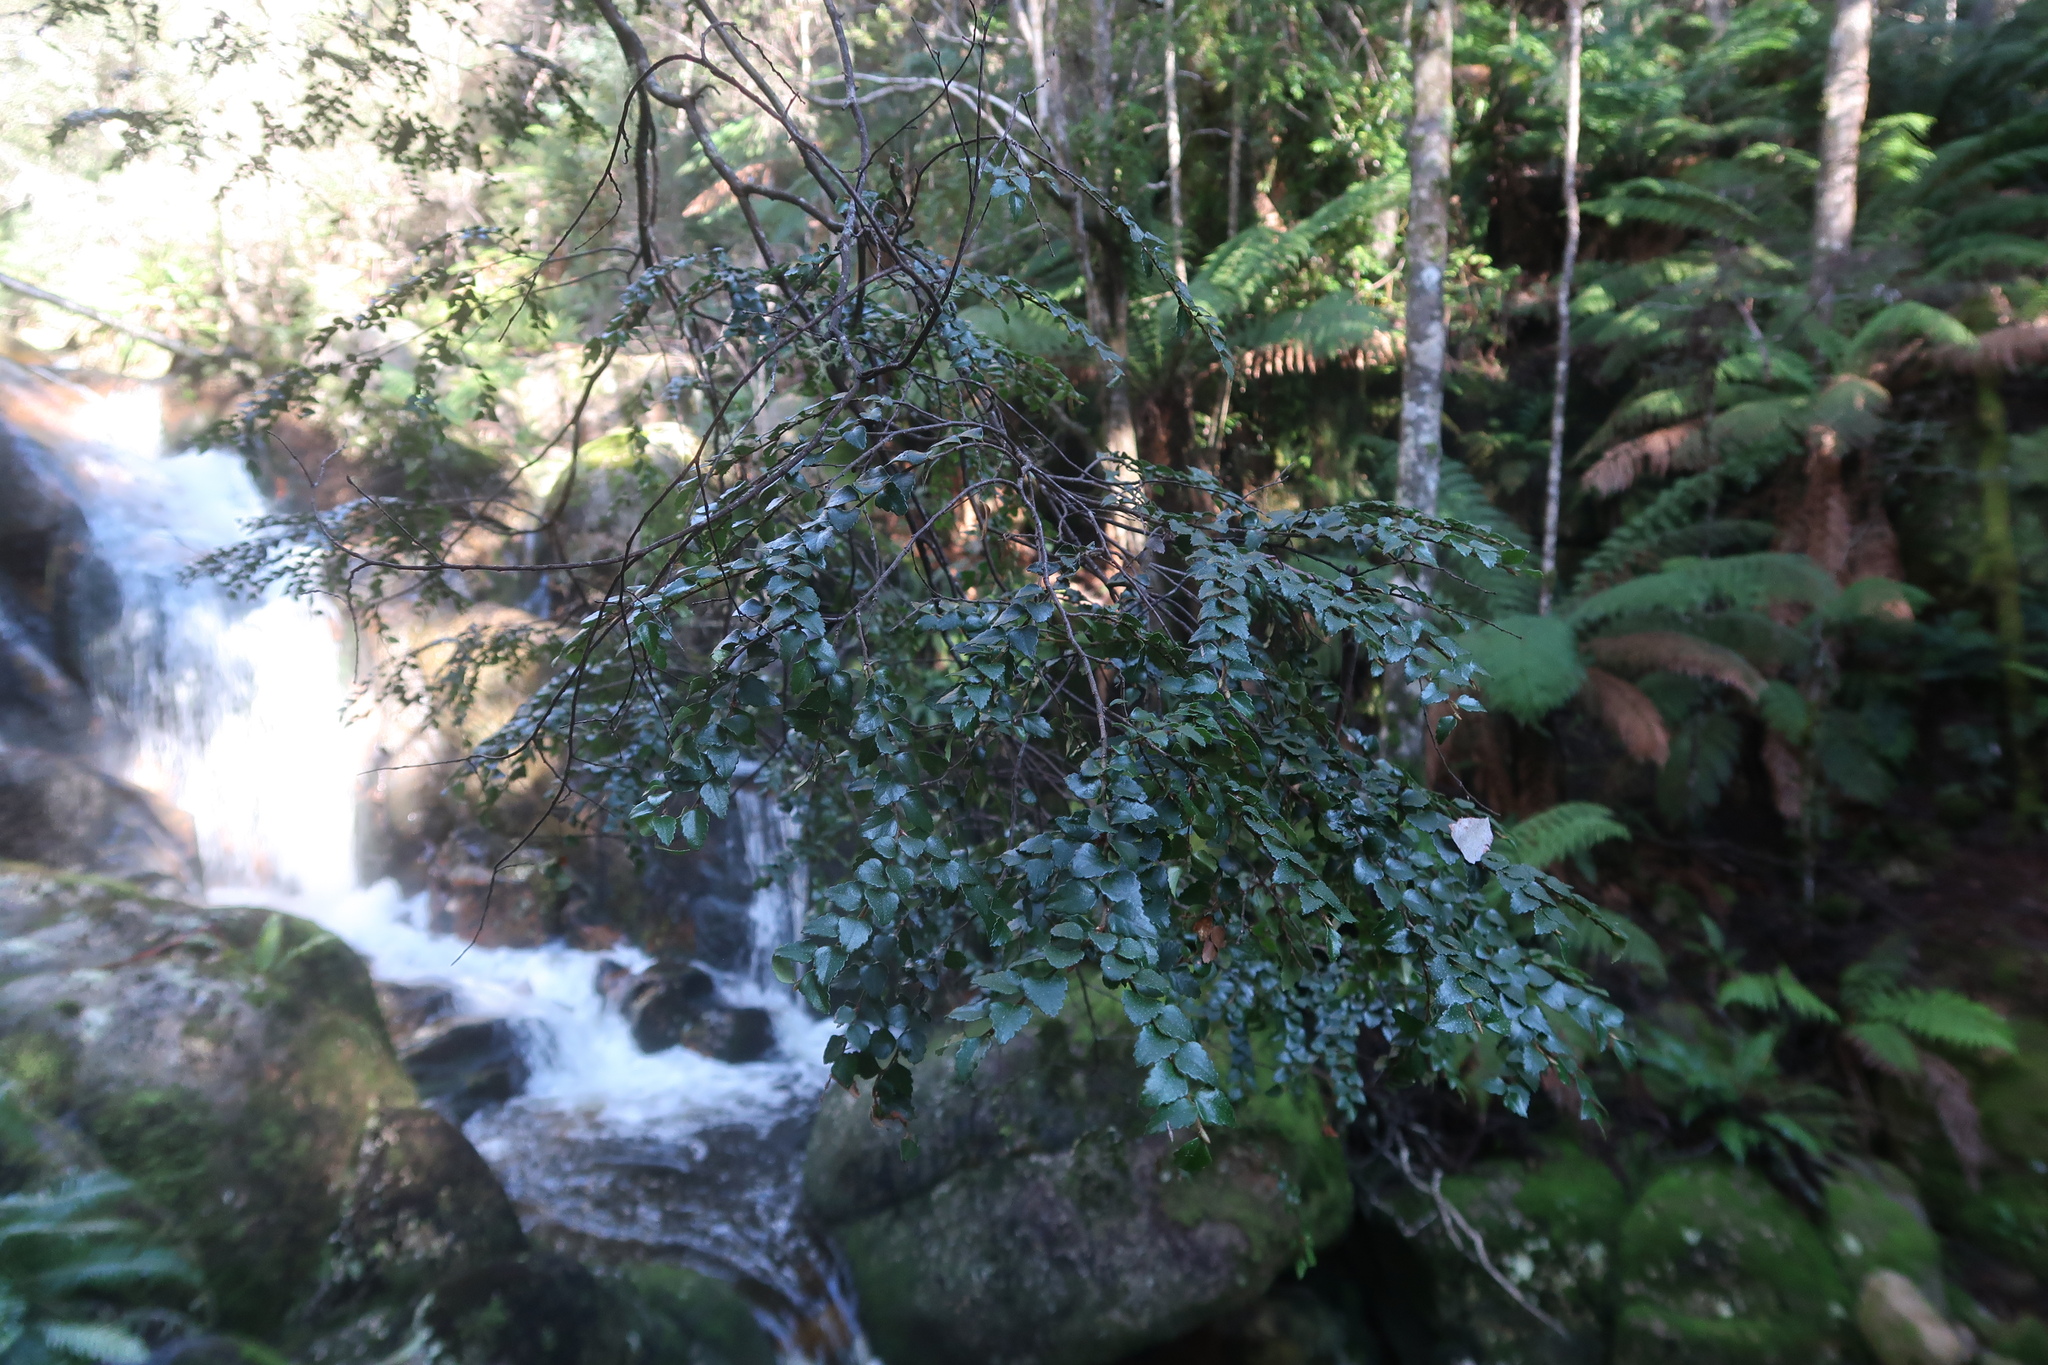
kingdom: Plantae
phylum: Tracheophyta
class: Magnoliopsida
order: Fagales
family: Nothofagaceae
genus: Nothofagus
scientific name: Nothofagus cunninghamii
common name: Myrtle beech
